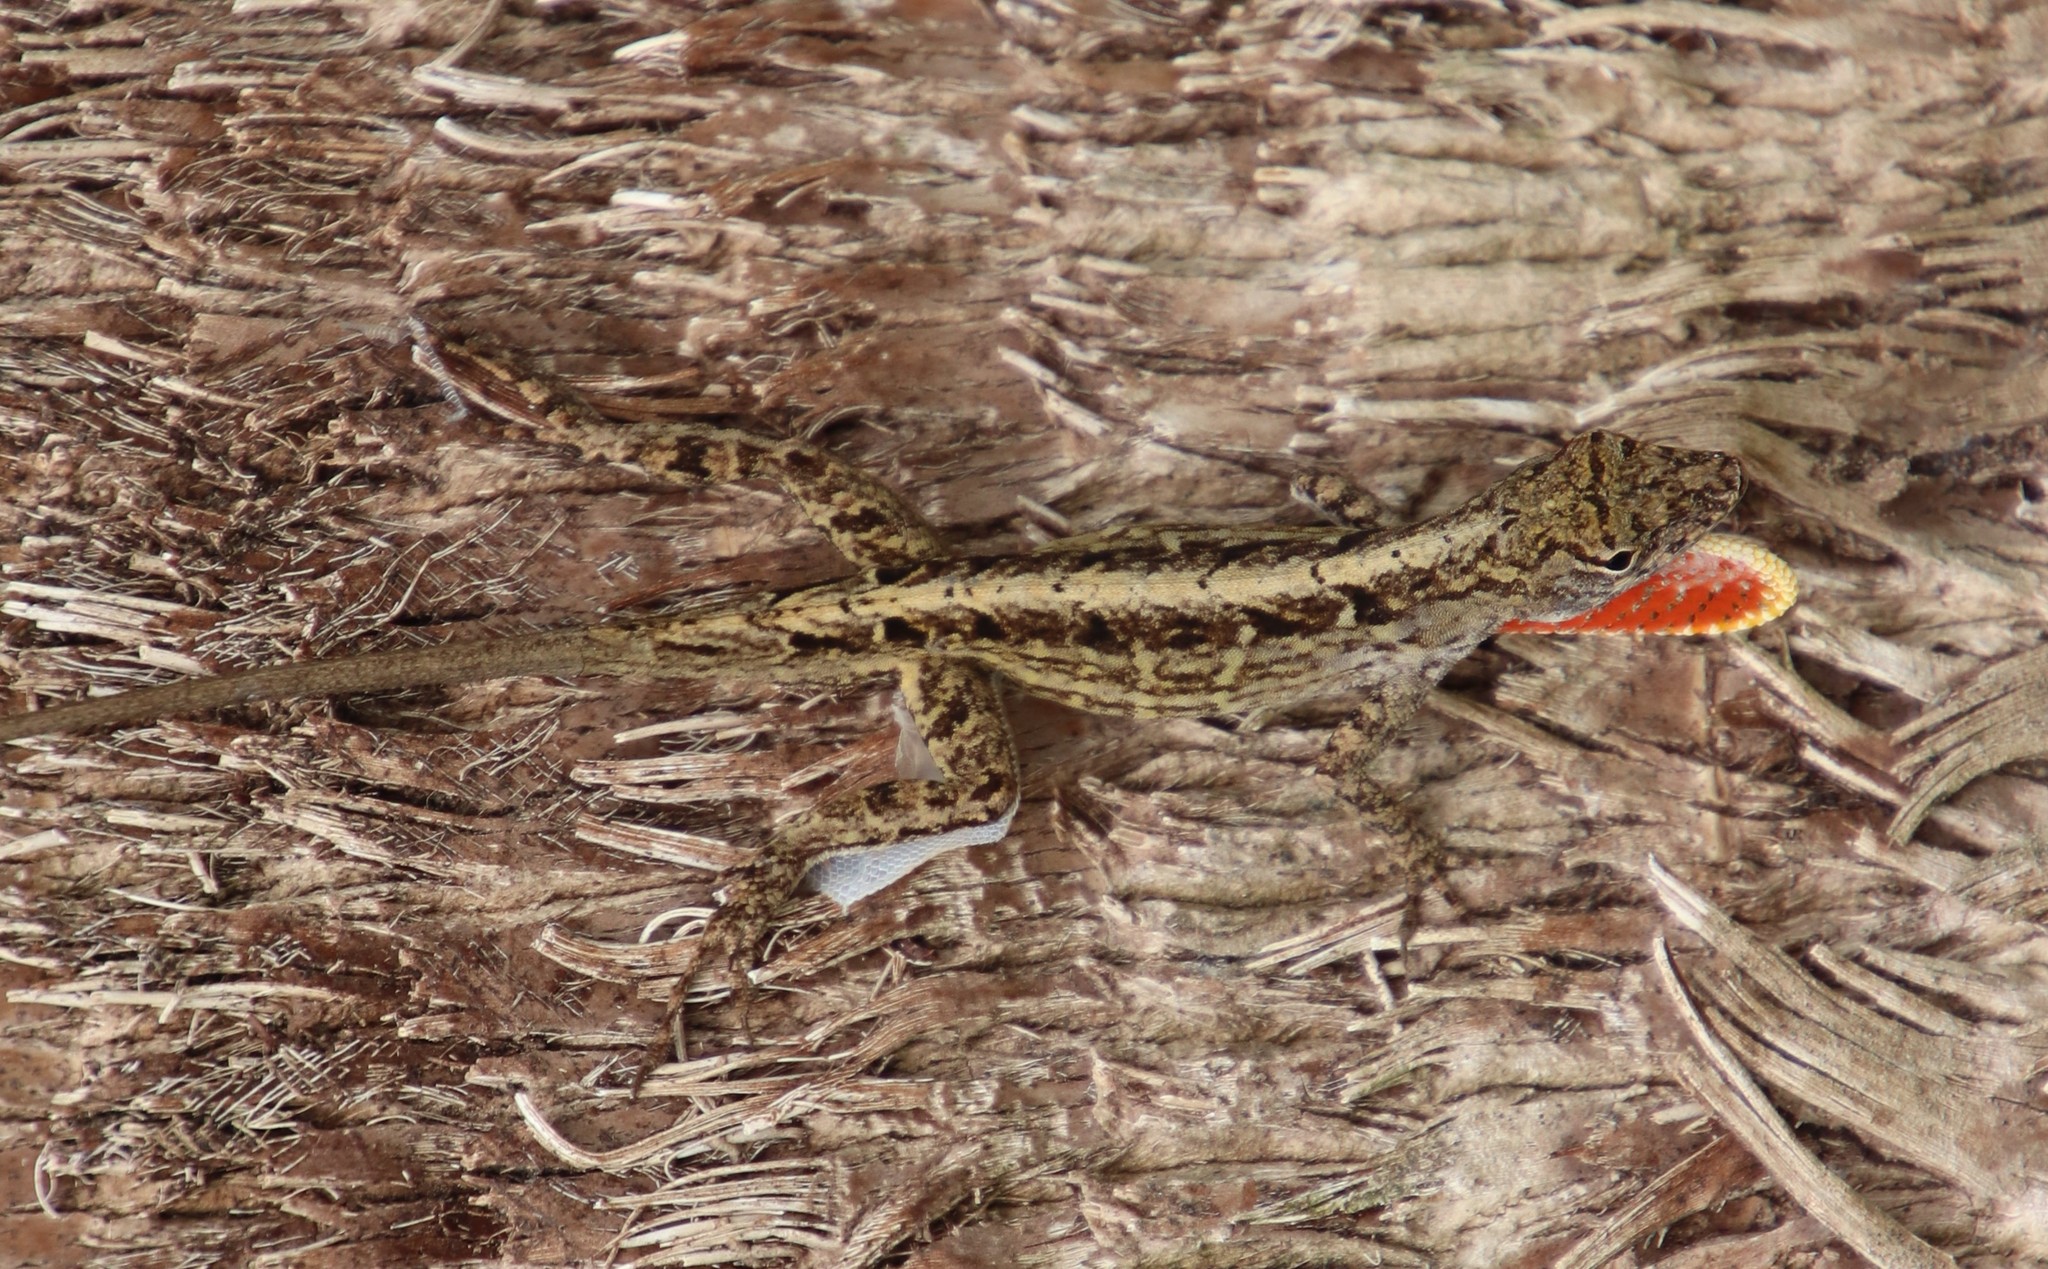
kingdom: Animalia
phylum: Chordata
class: Squamata
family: Dactyloidae
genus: Anolis
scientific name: Anolis sagrei
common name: Brown anole
